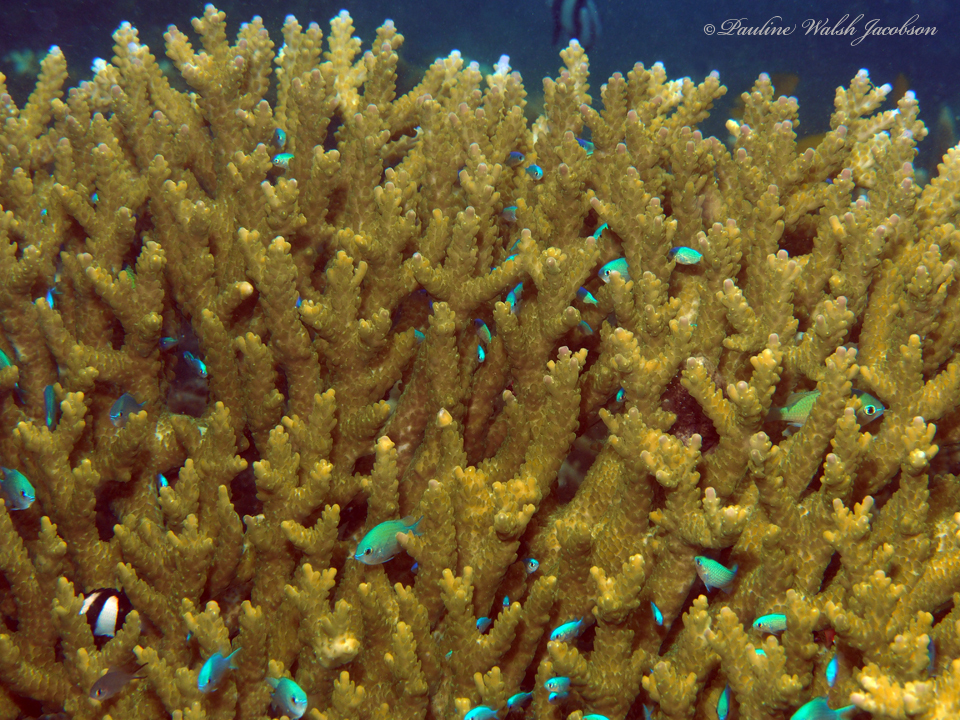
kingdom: Animalia
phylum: Chordata
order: Perciformes
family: Pomacentridae
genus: Chromis
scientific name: Chromis viridis
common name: Blue-green chromis
